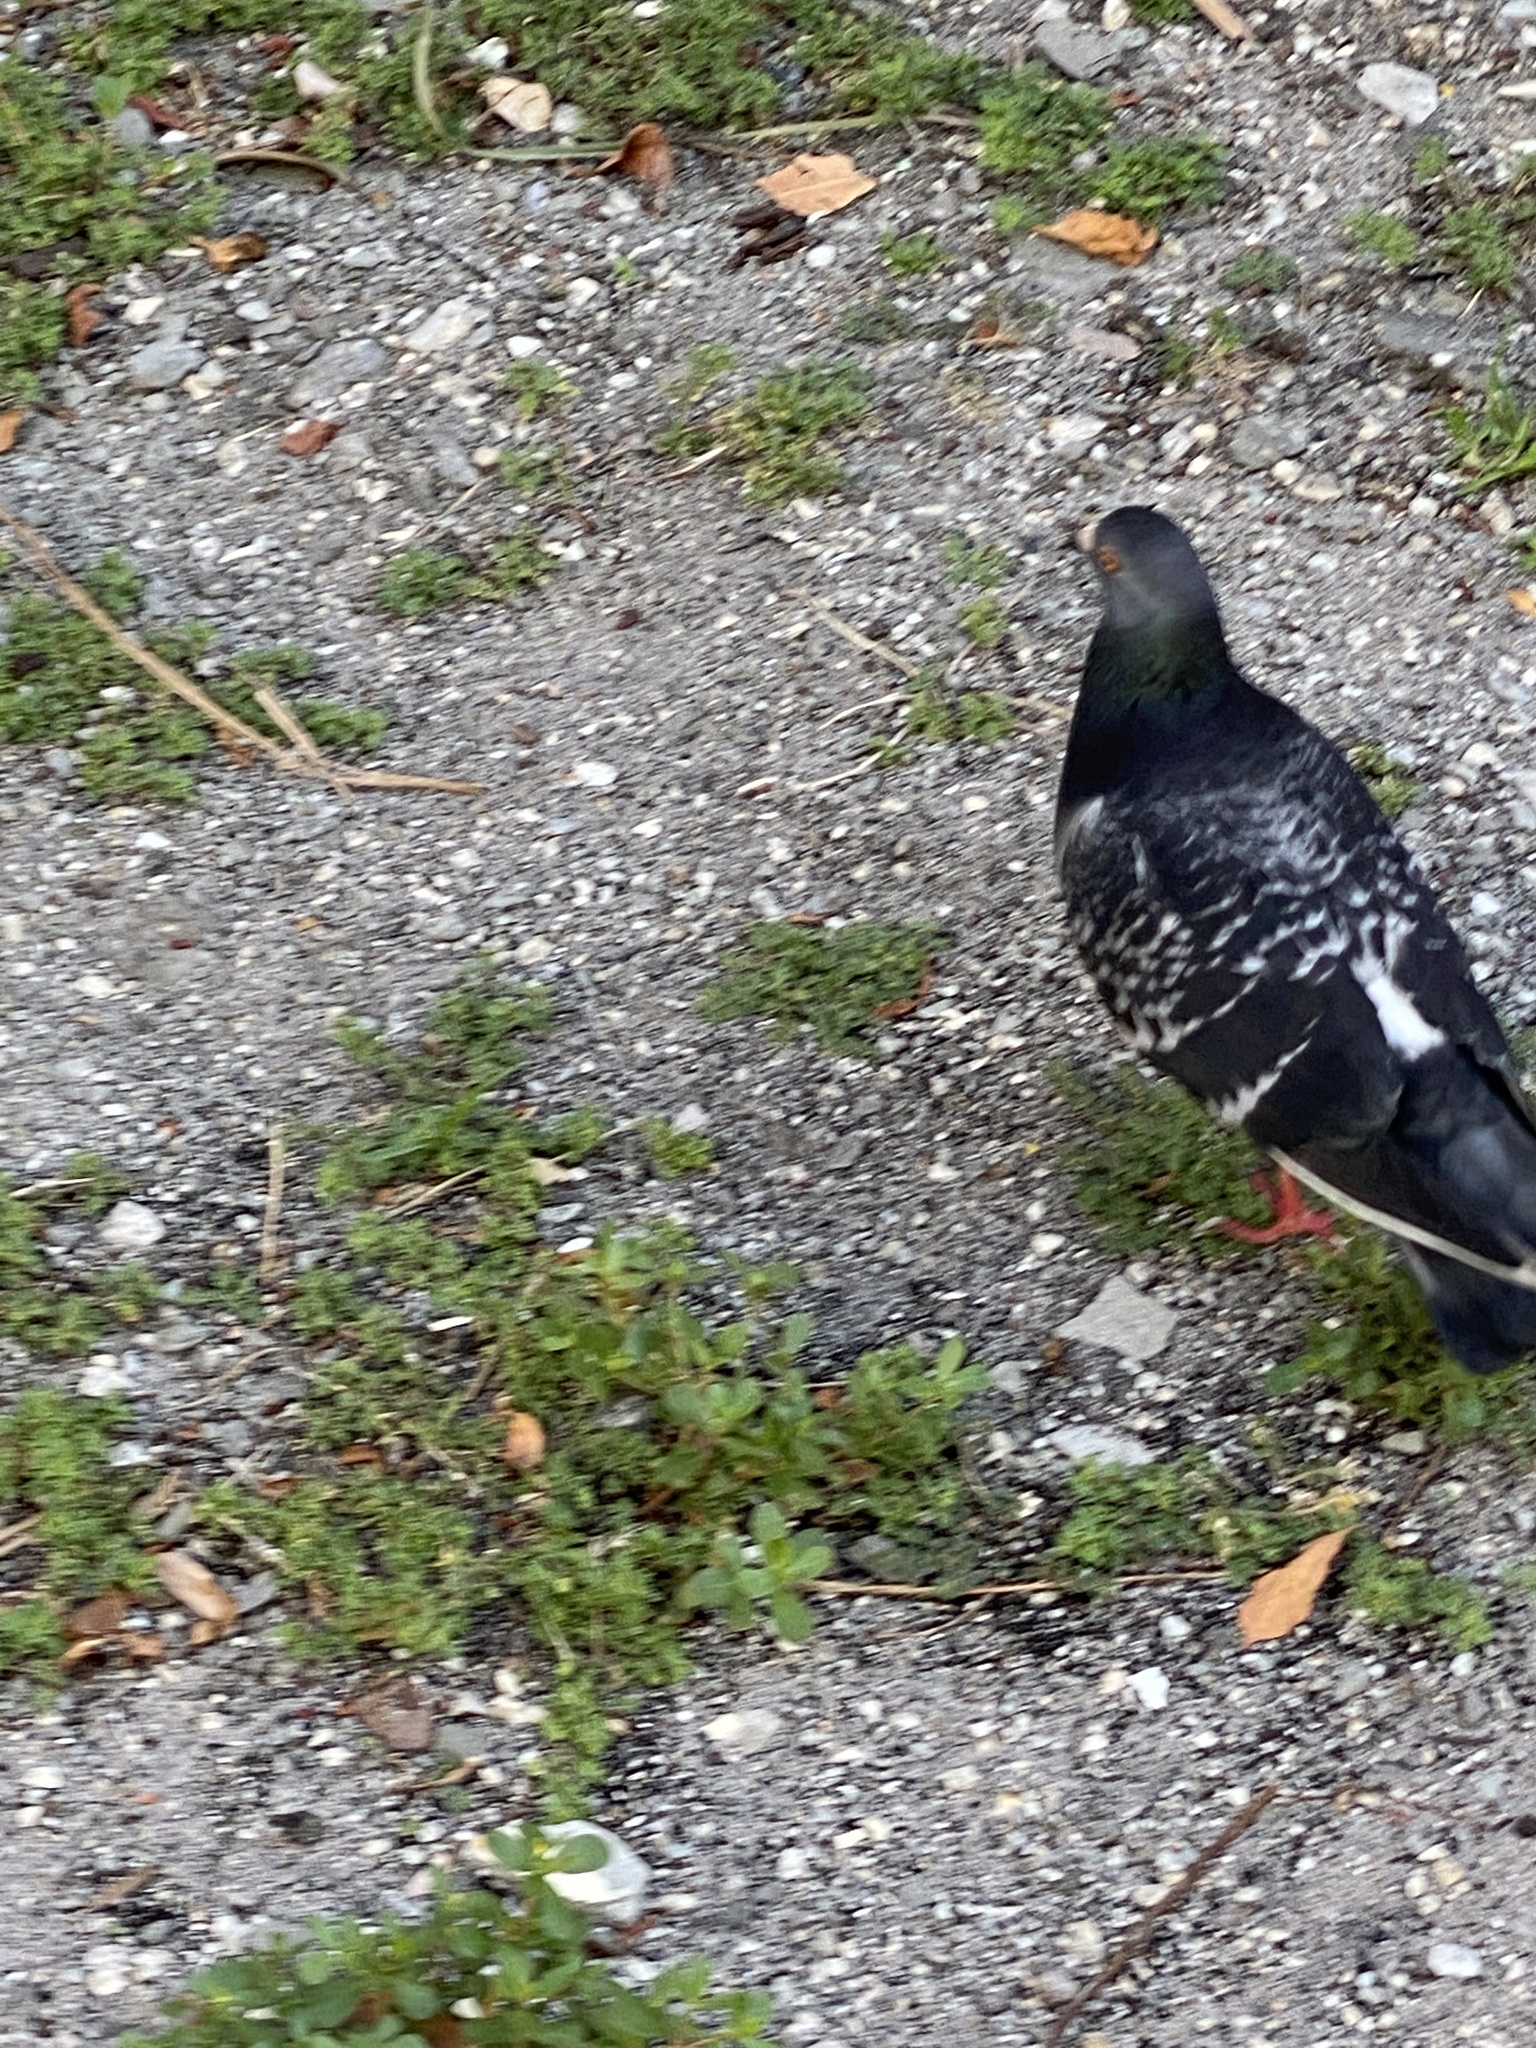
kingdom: Animalia
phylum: Chordata
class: Aves
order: Columbiformes
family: Columbidae
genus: Columba
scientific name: Columba livia
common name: Rock pigeon
